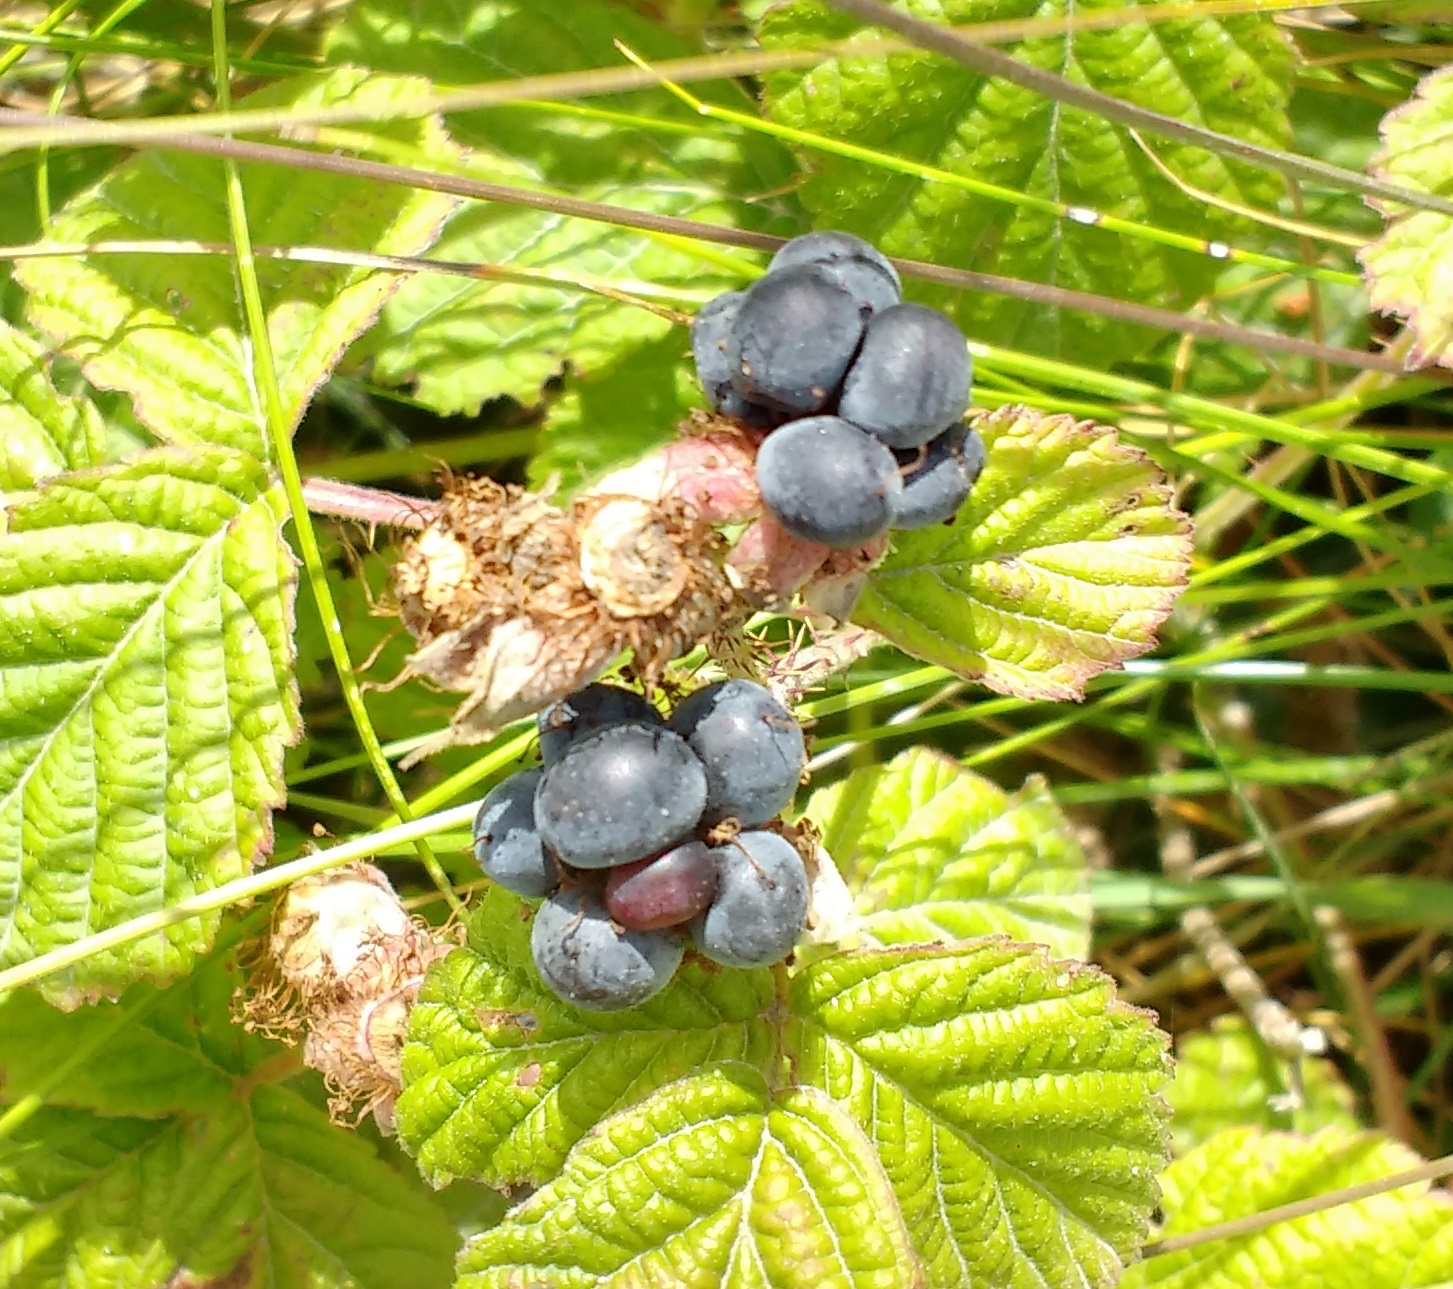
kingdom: Plantae
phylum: Tracheophyta
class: Magnoliopsida
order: Rosales
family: Rosaceae
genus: Rubus
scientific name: Rubus caesius
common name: Dewberry
